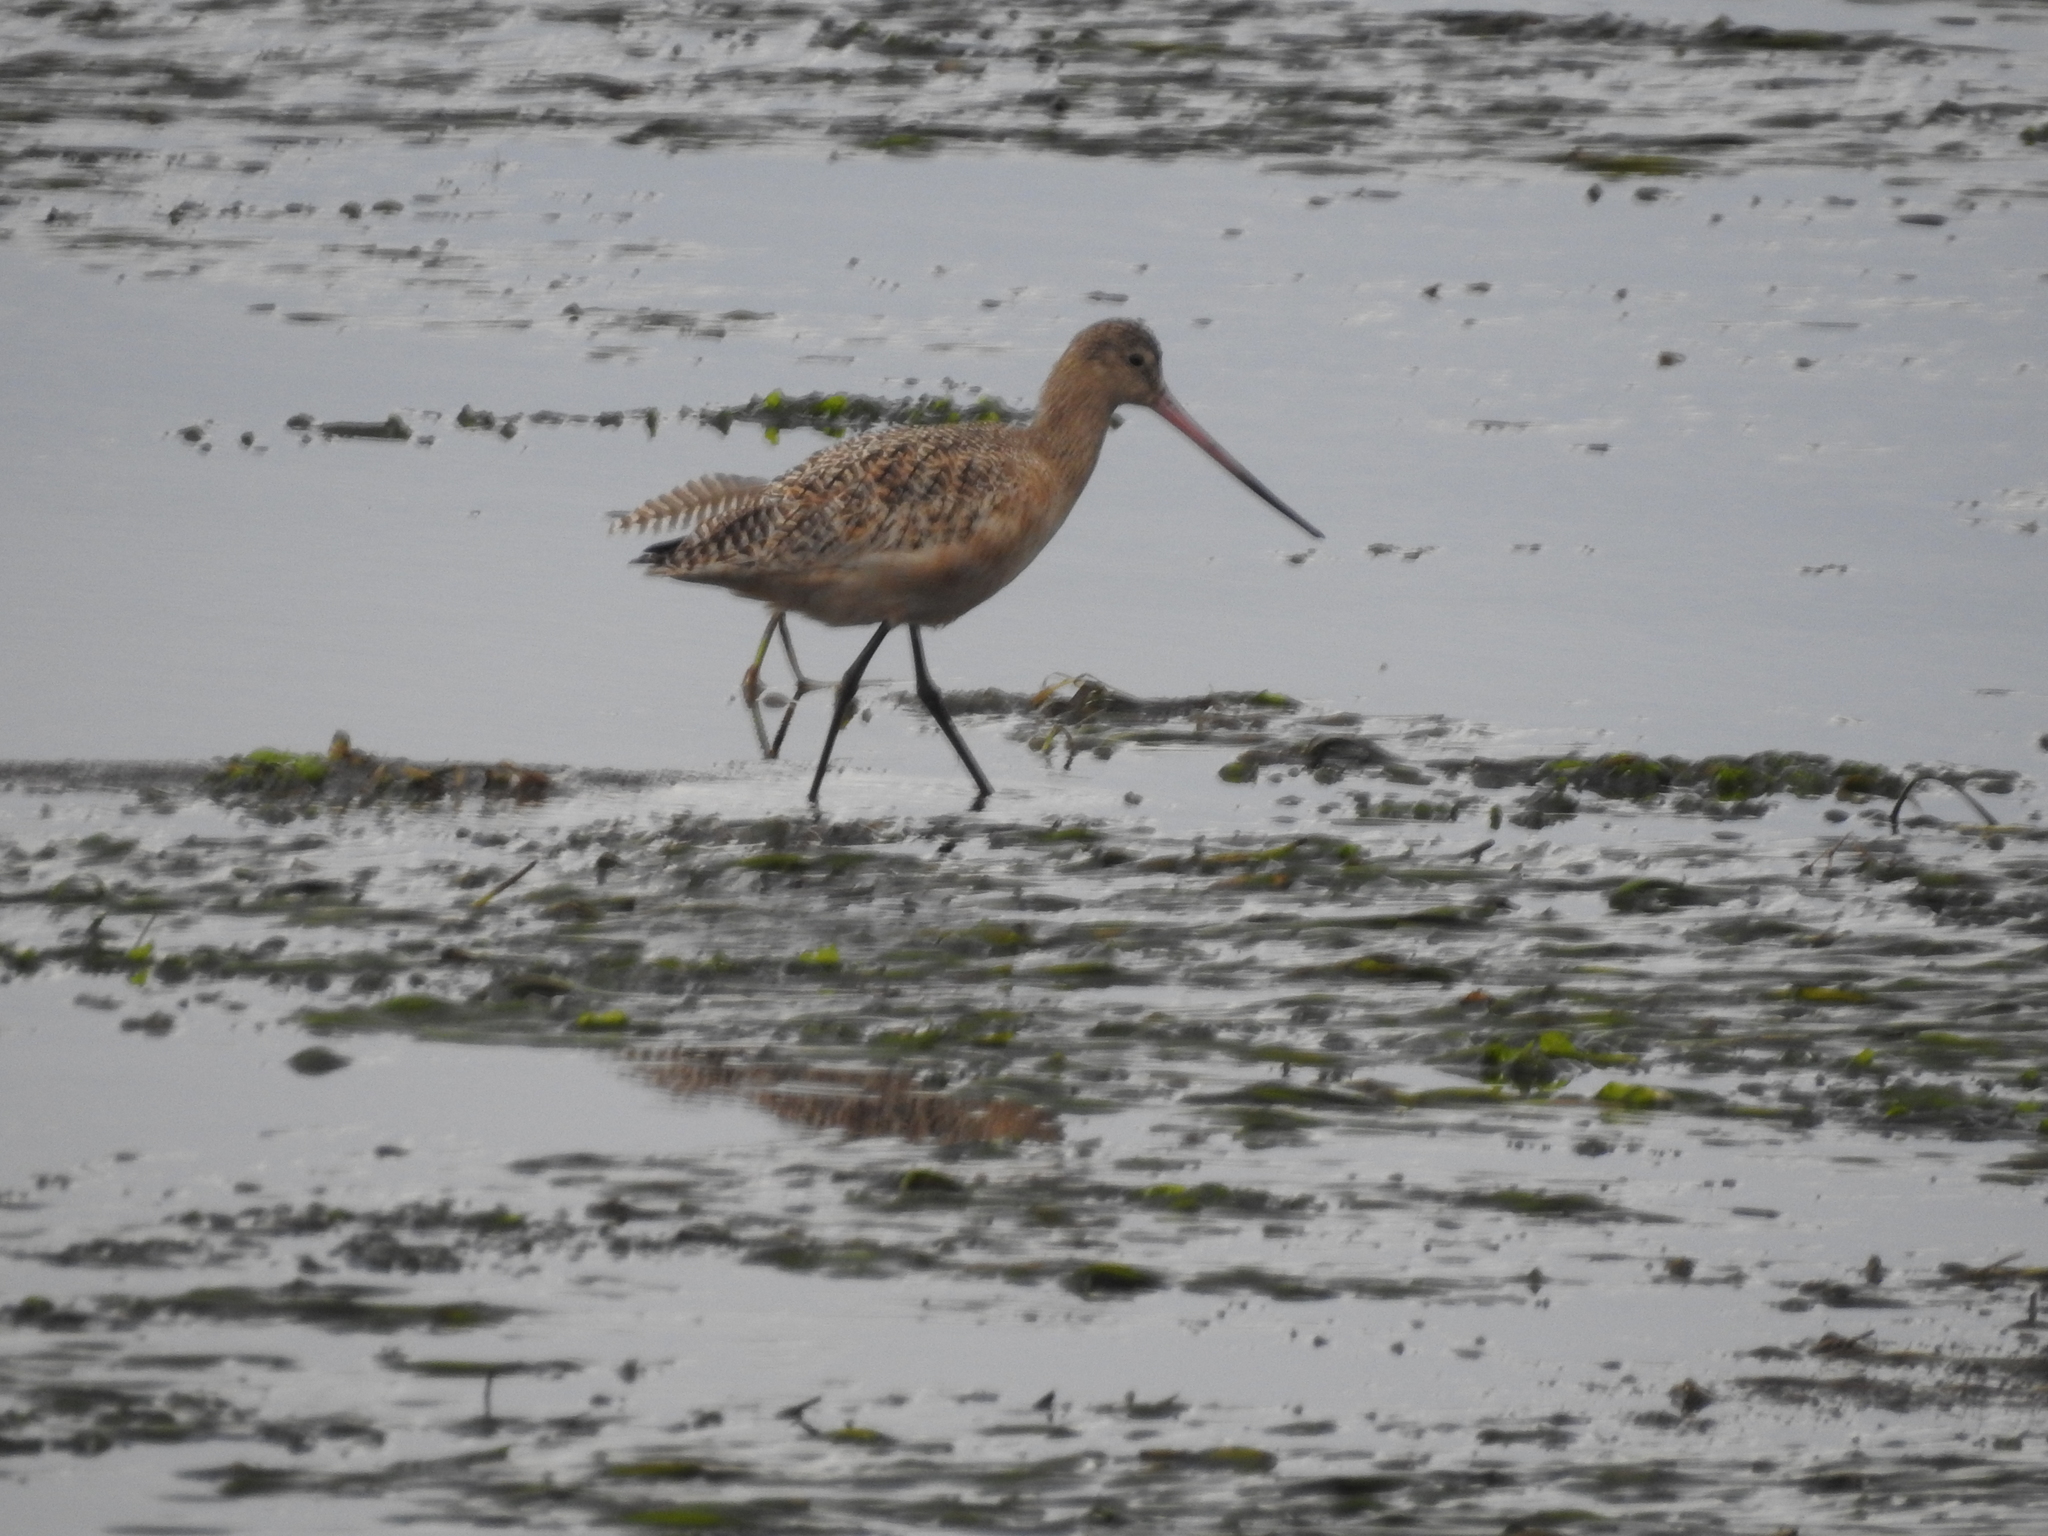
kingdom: Animalia
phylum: Chordata
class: Aves
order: Charadriiformes
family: Scolopacidae
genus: Limosa
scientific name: Limosa fedoa
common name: Marbled godwit
